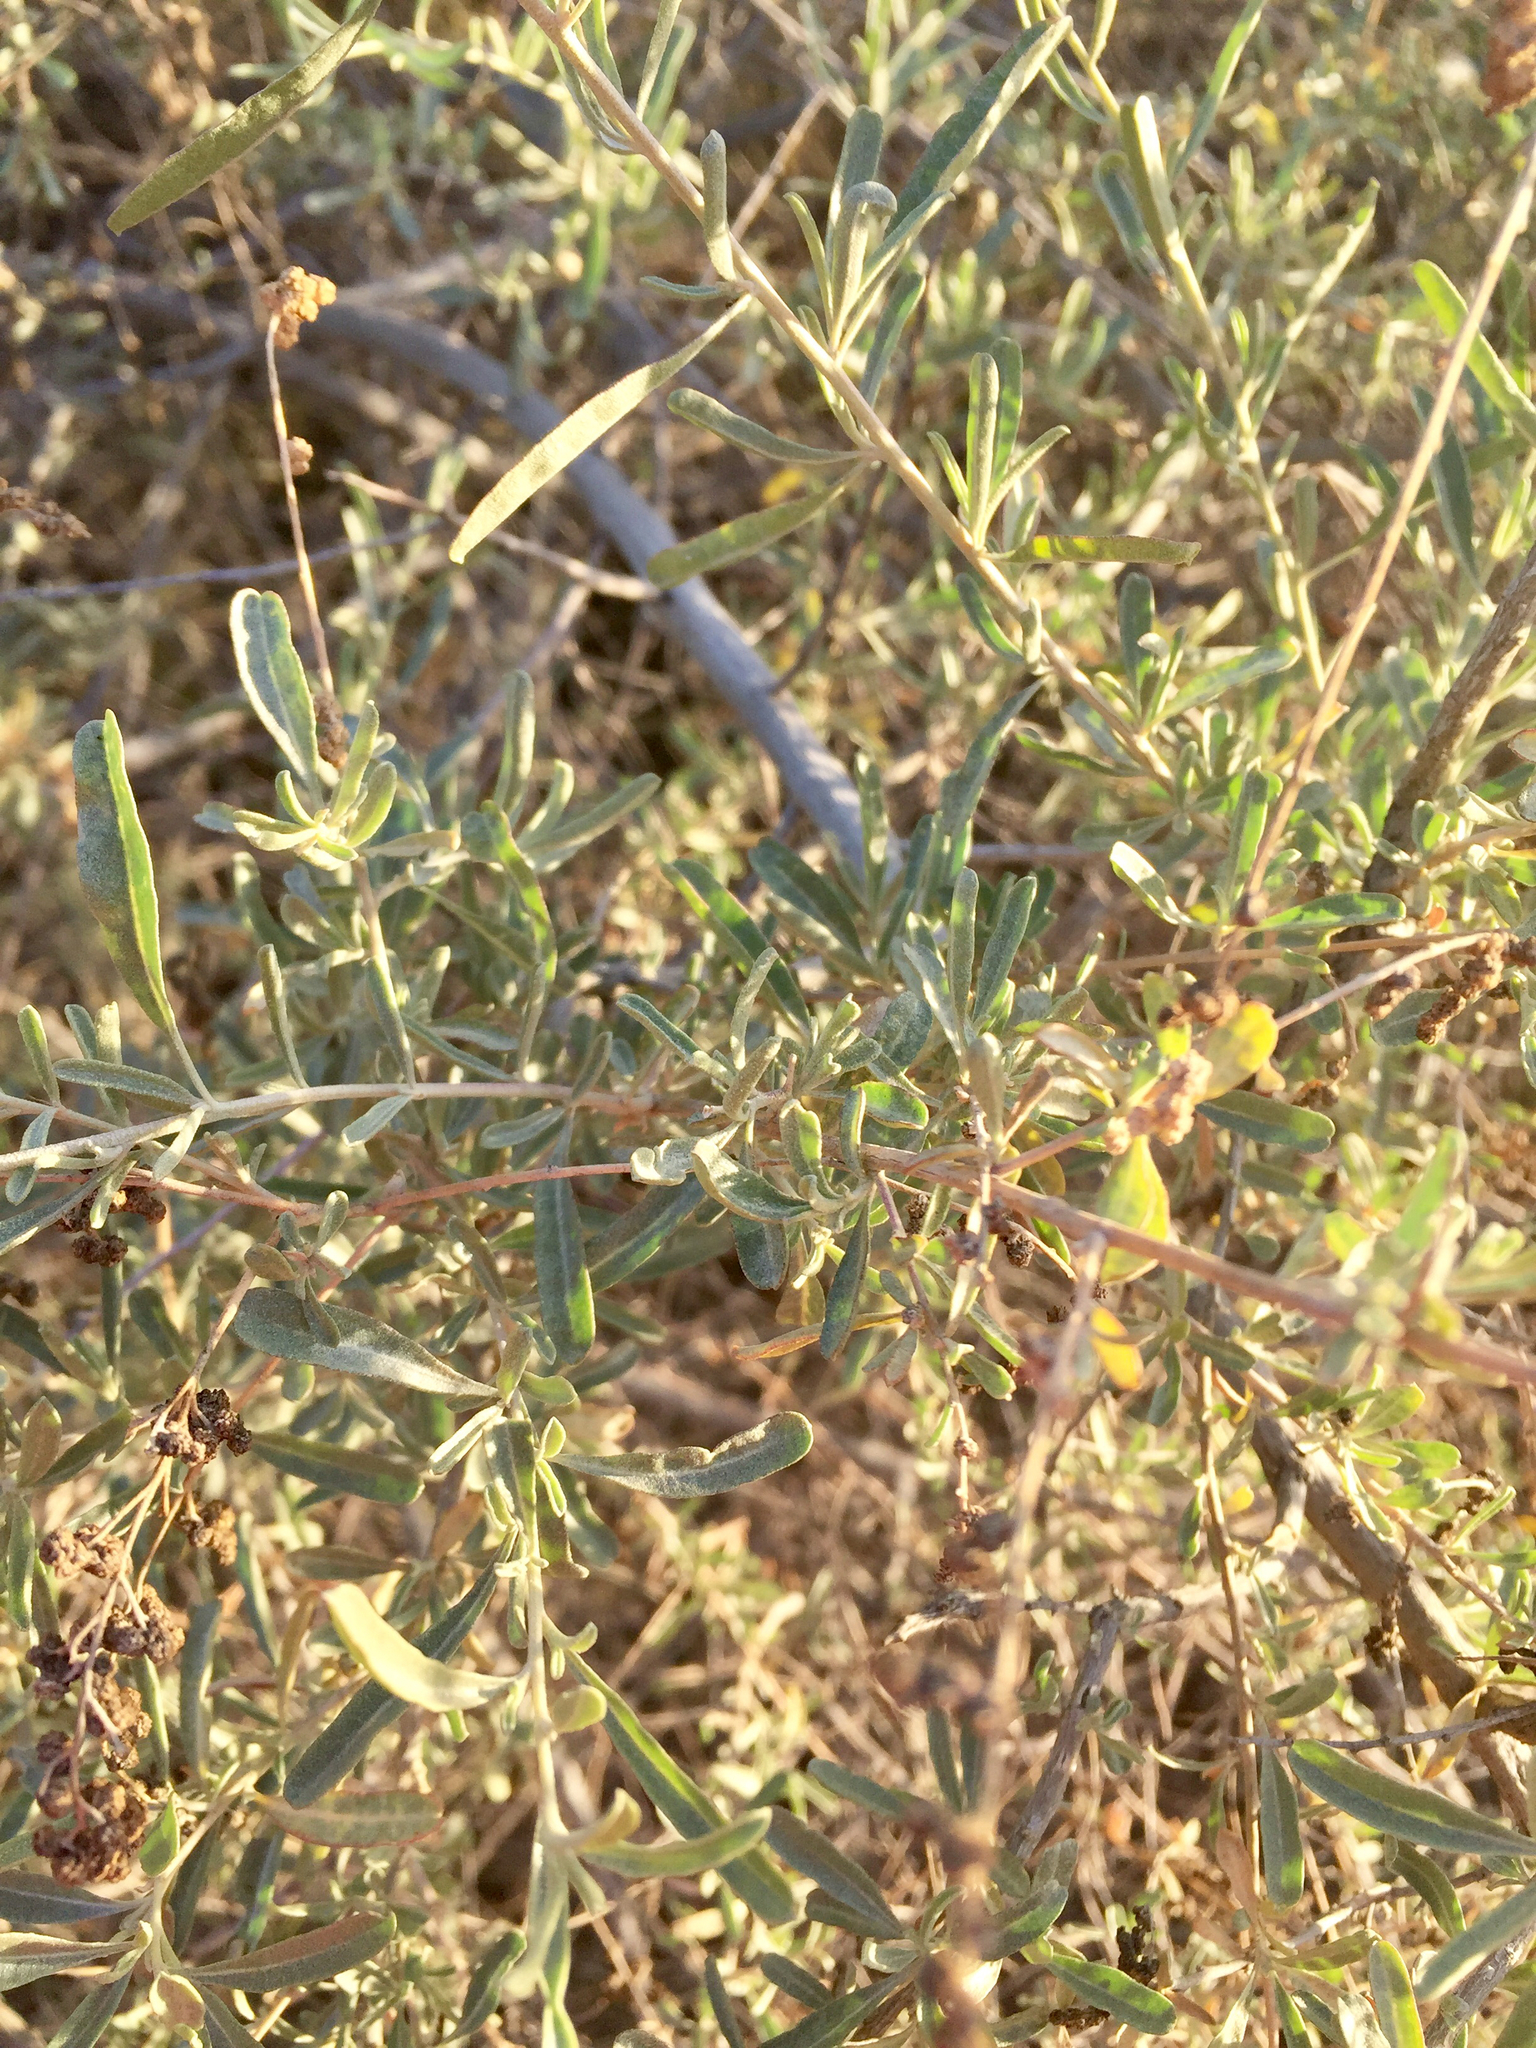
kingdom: Plantae
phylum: Tracheophyta
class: Magnoliopsida
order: Caryophyllales
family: Amaranthaceae
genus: Atriplex
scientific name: Atriplex canescens
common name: Four-wing saltbush
